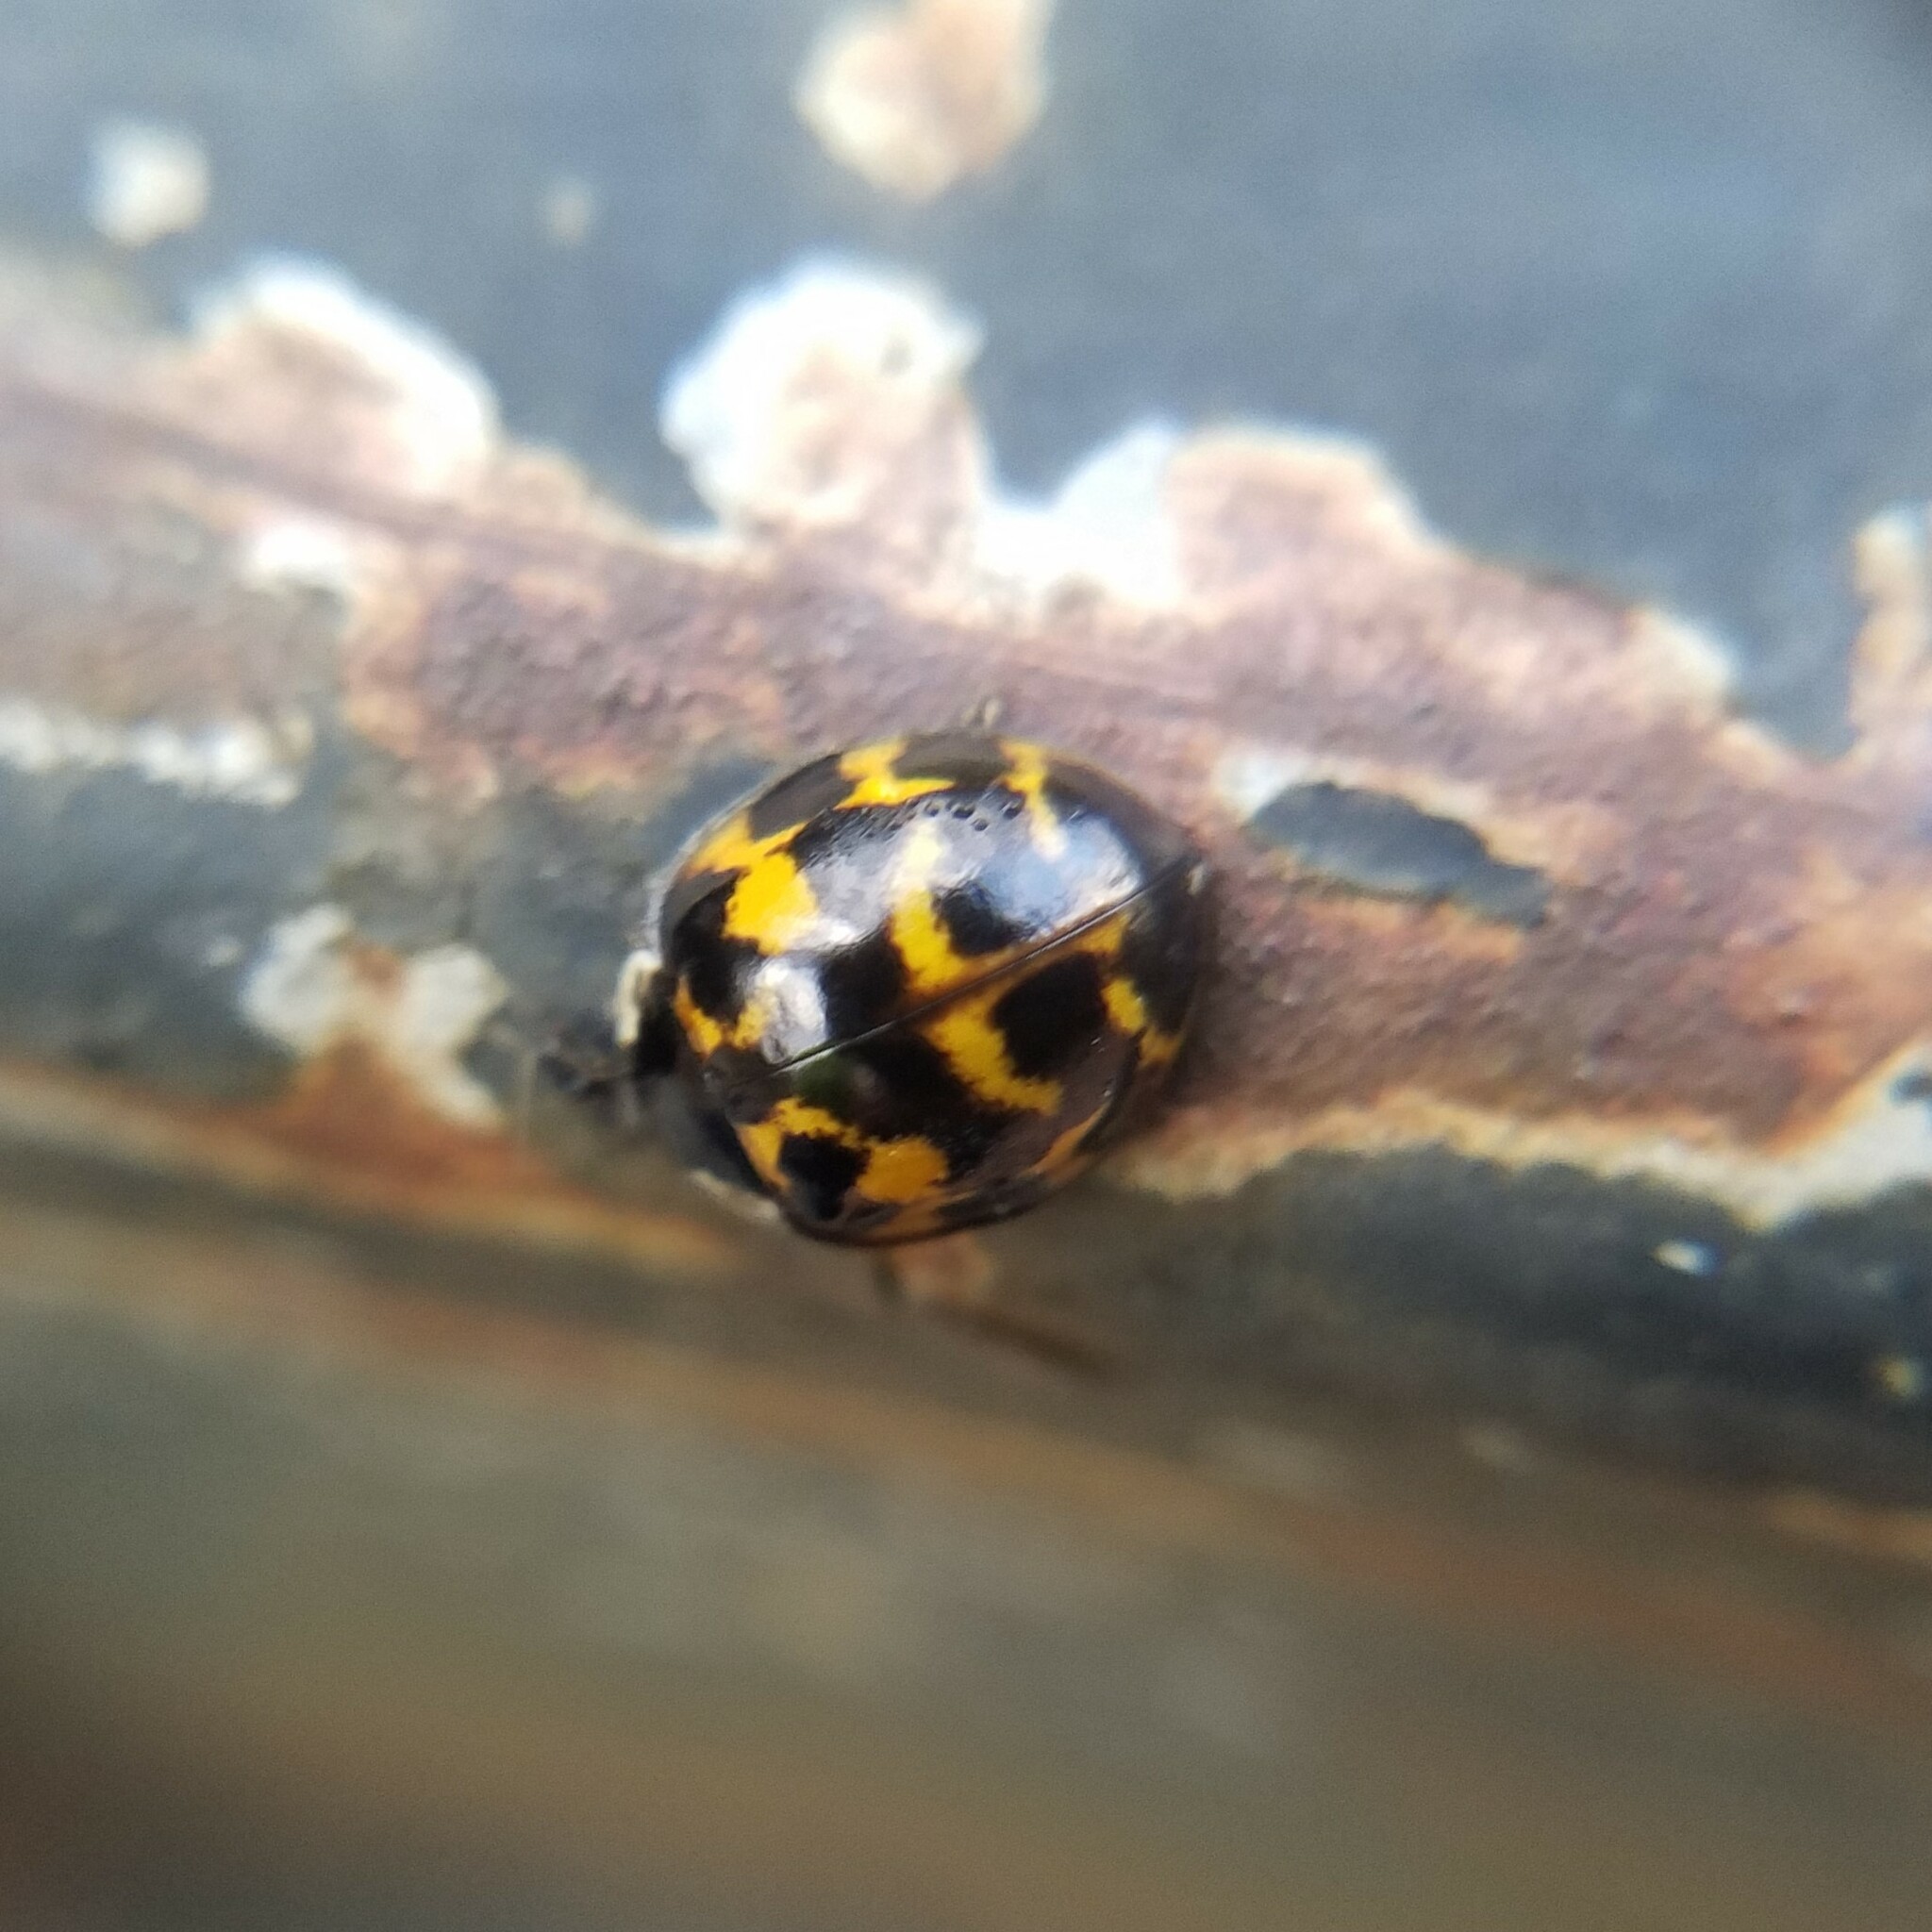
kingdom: Animalia
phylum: Arthropoda
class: Insecta
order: Coleoptera
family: Coccinellidae
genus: Harmonia
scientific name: Harmonia axyridis
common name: Harlequin ladybird
